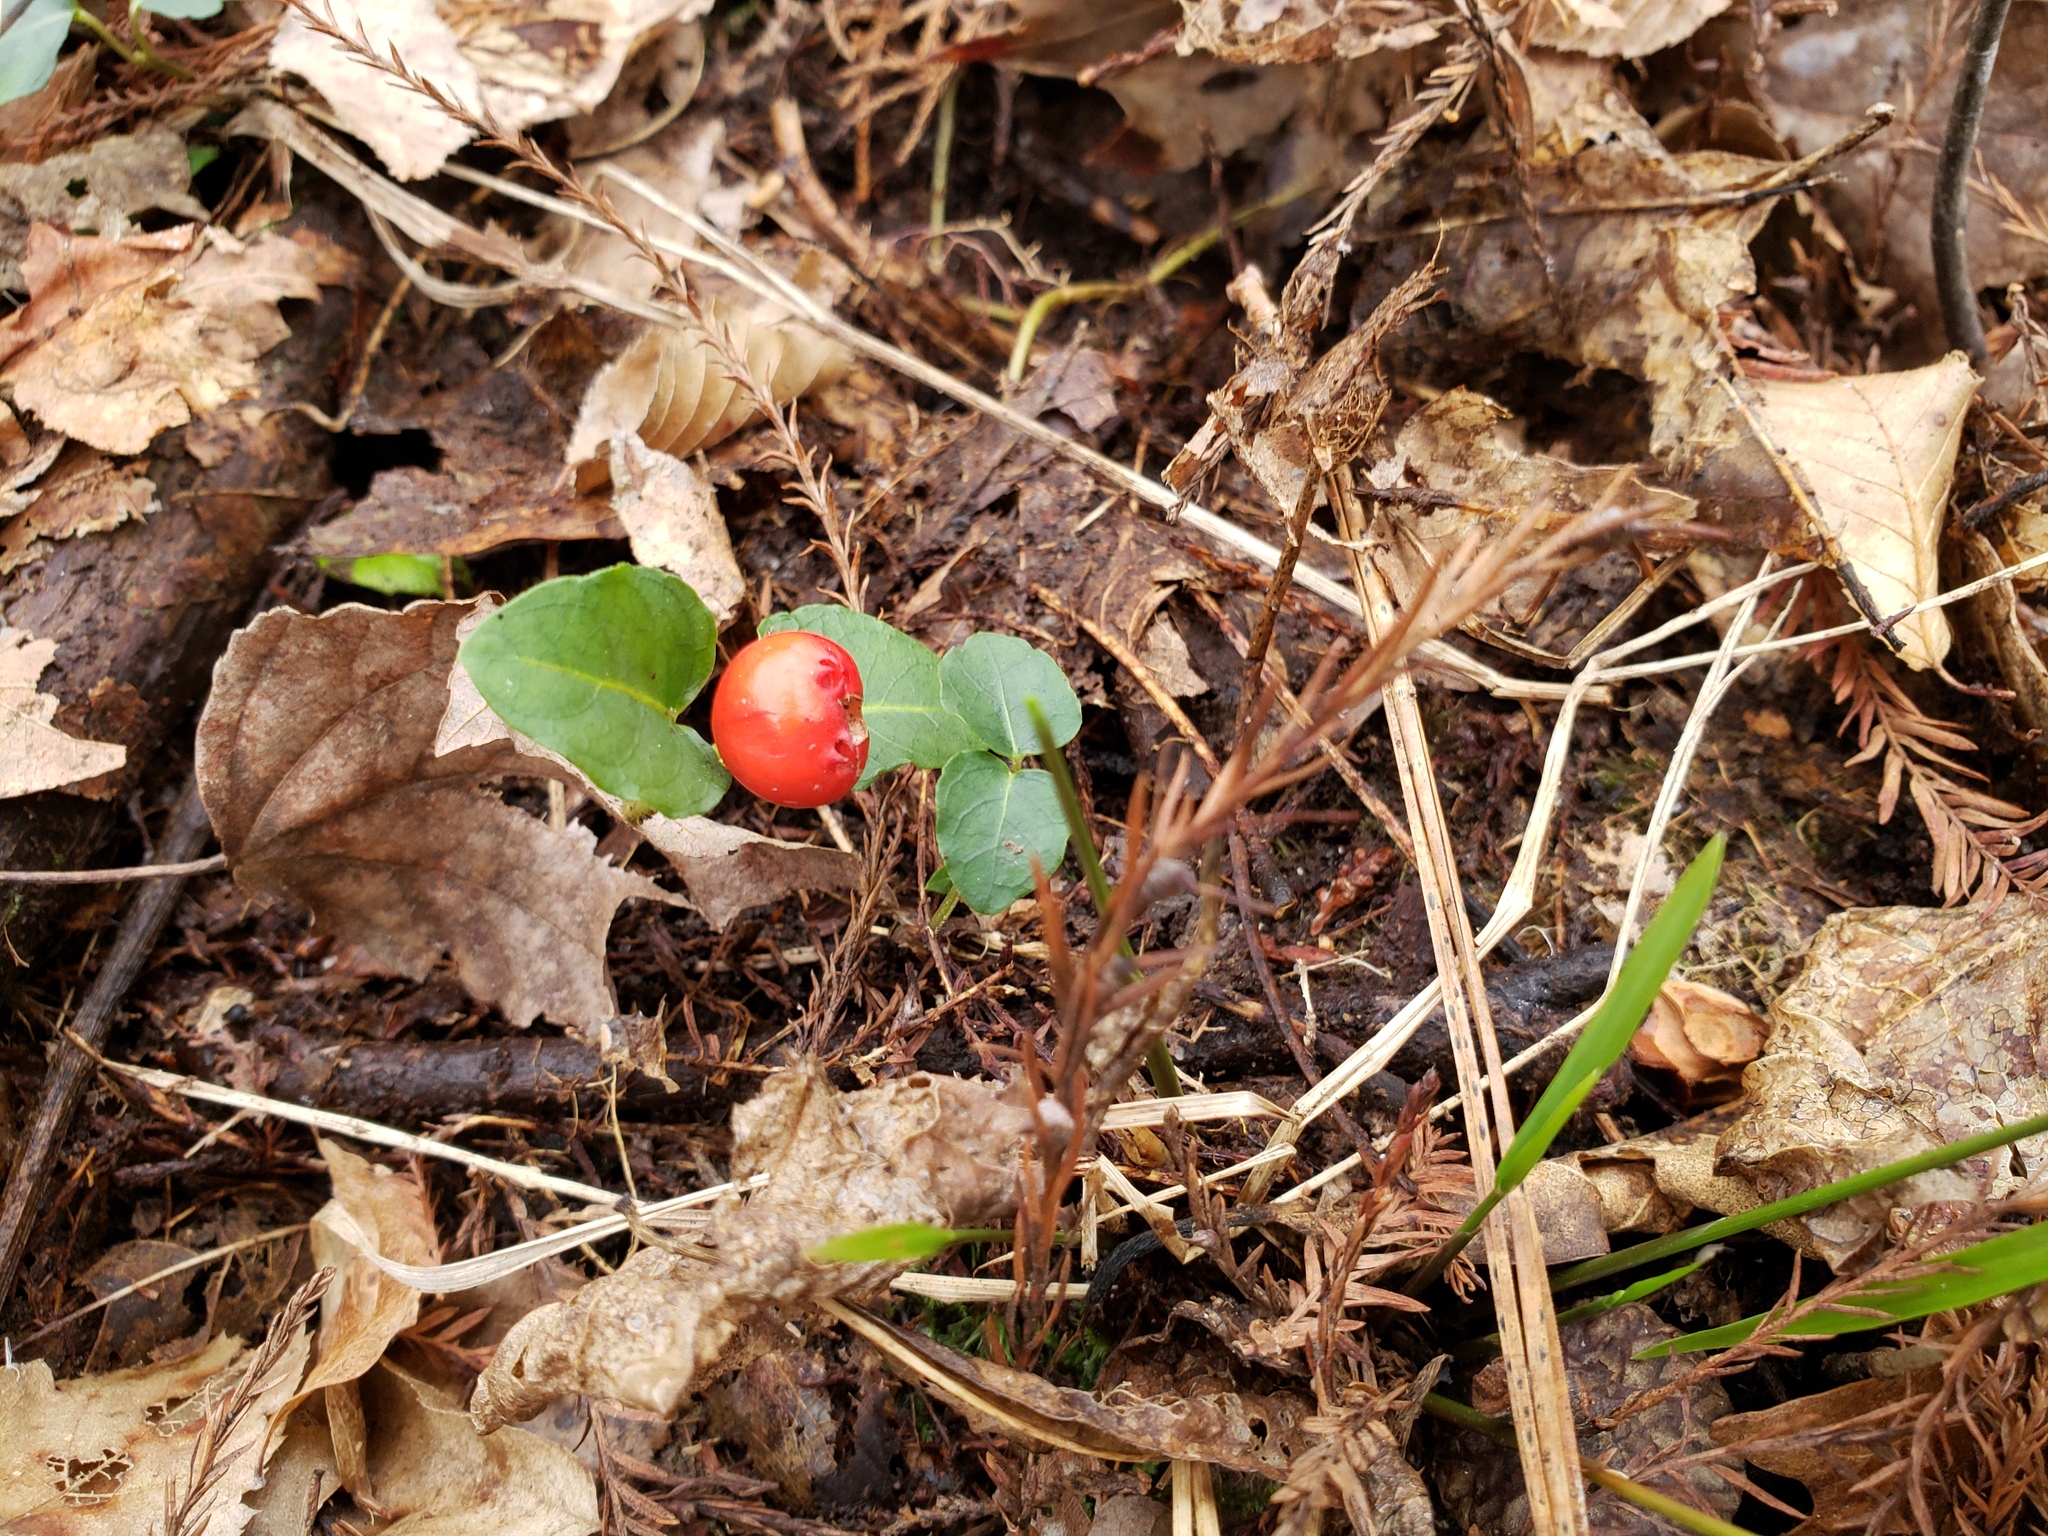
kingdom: Plantae
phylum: Tracheophyta
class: Magnoliopsida
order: Gentianales
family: Rubiaceae
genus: Mitchella
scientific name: Mitchella repens
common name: Partridge-berry
